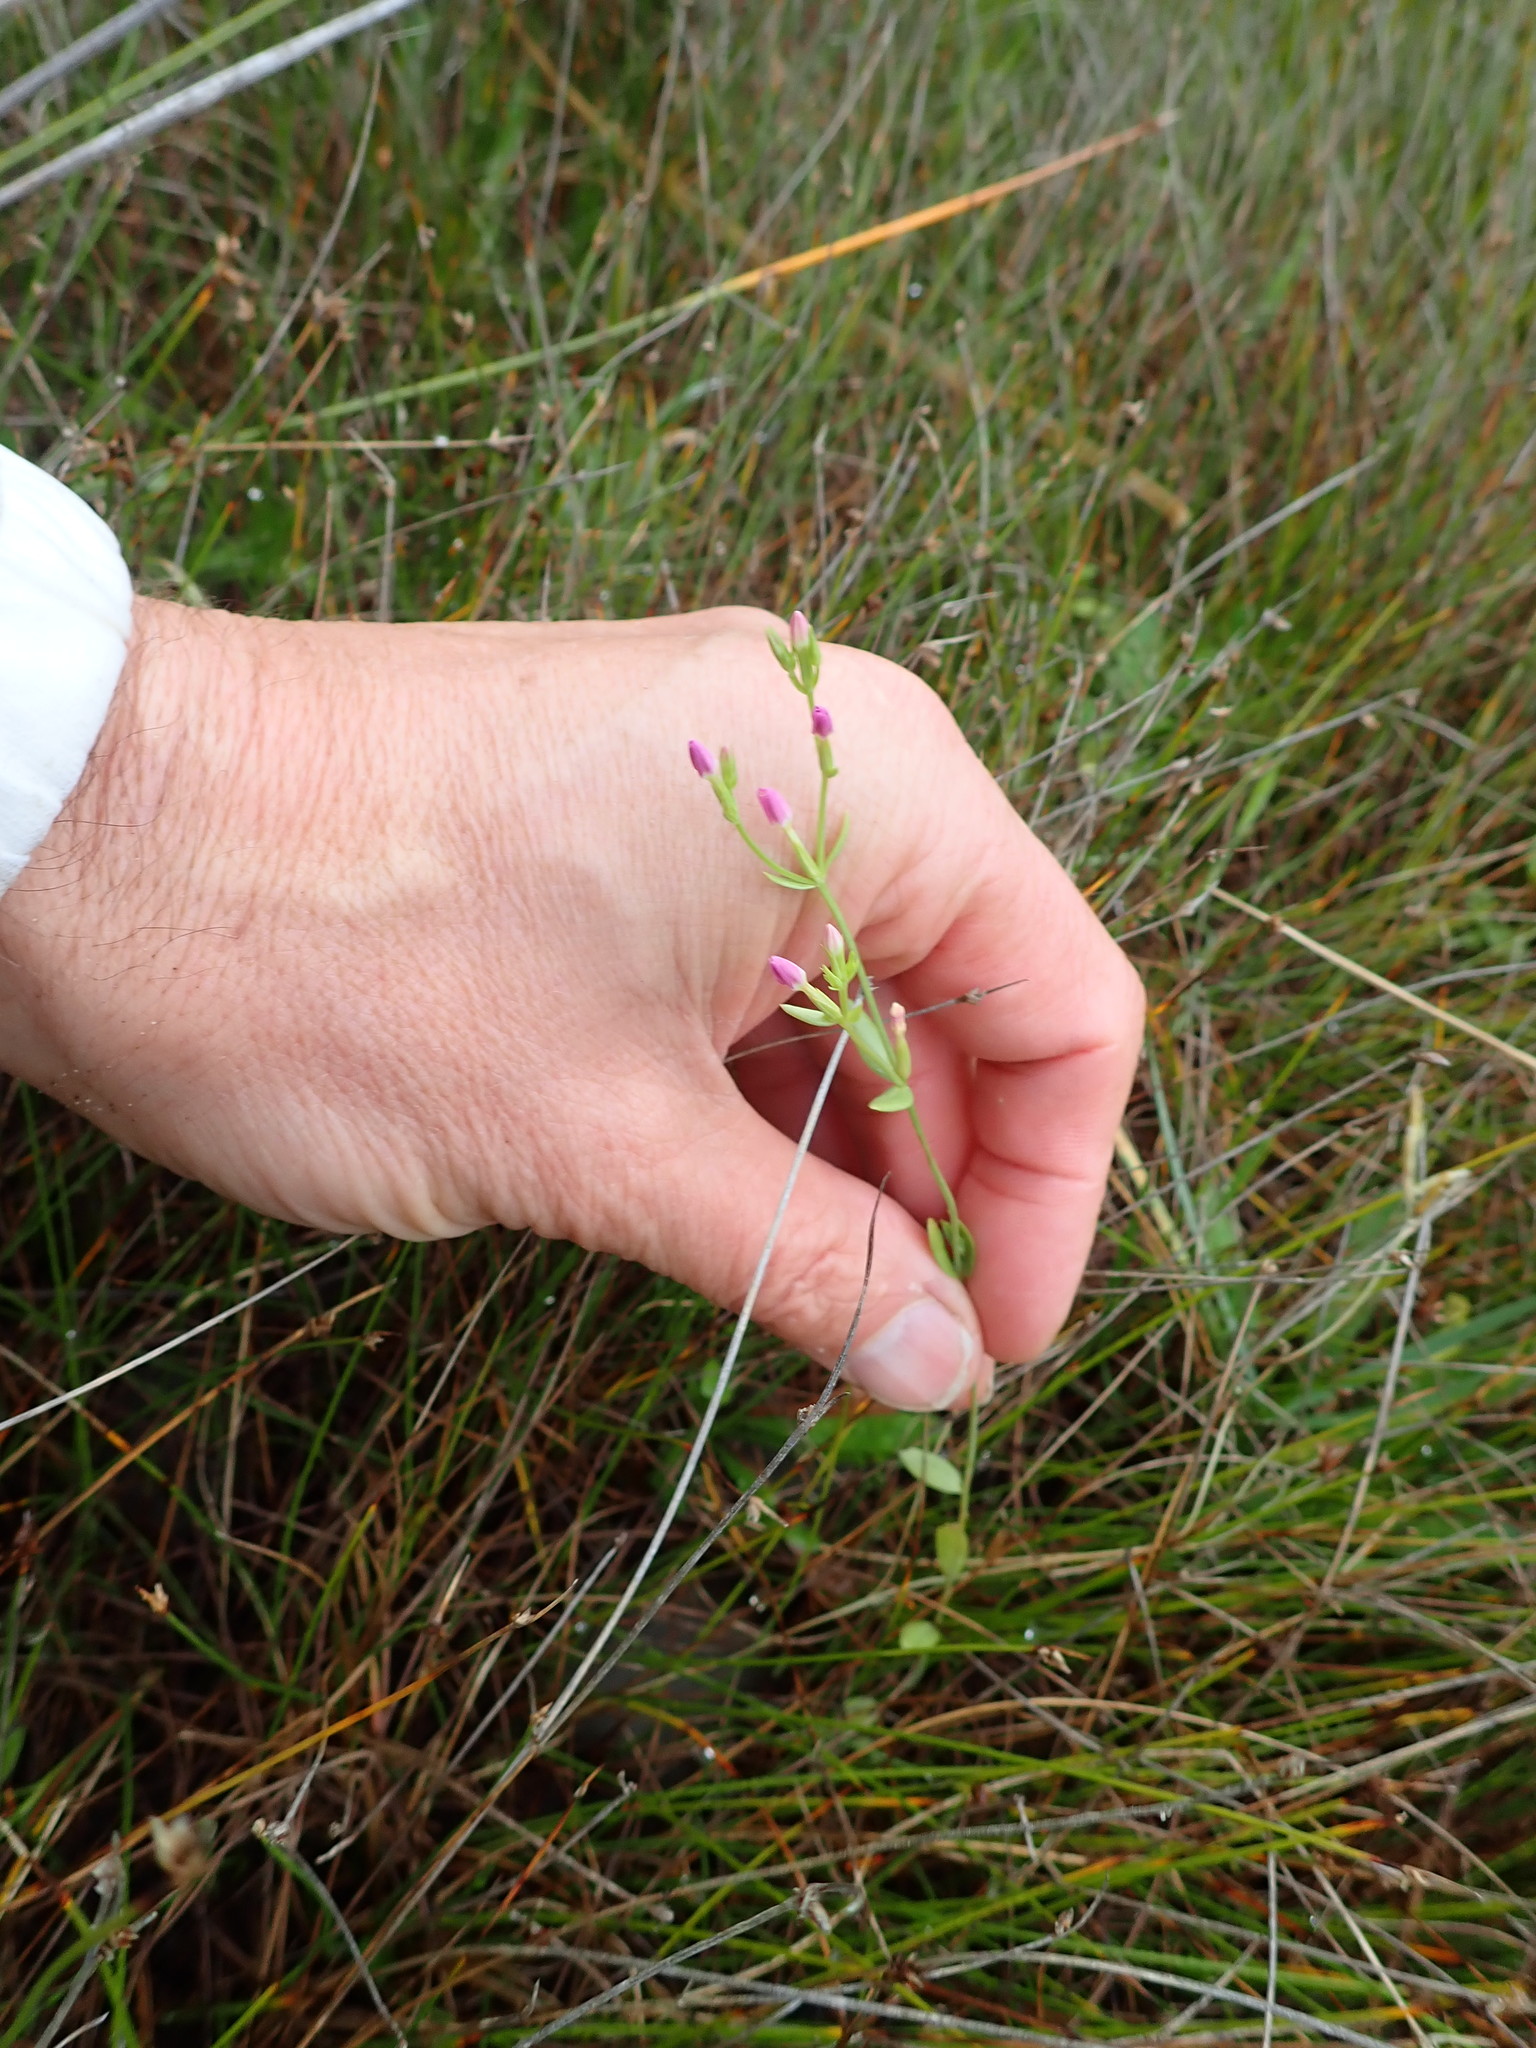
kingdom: Plantae
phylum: Tracheophyta
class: Magnoliopsida
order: Gentianales
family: Gentianaceae
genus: Centaurium
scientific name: Centaurium erythraea
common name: Common centaury
